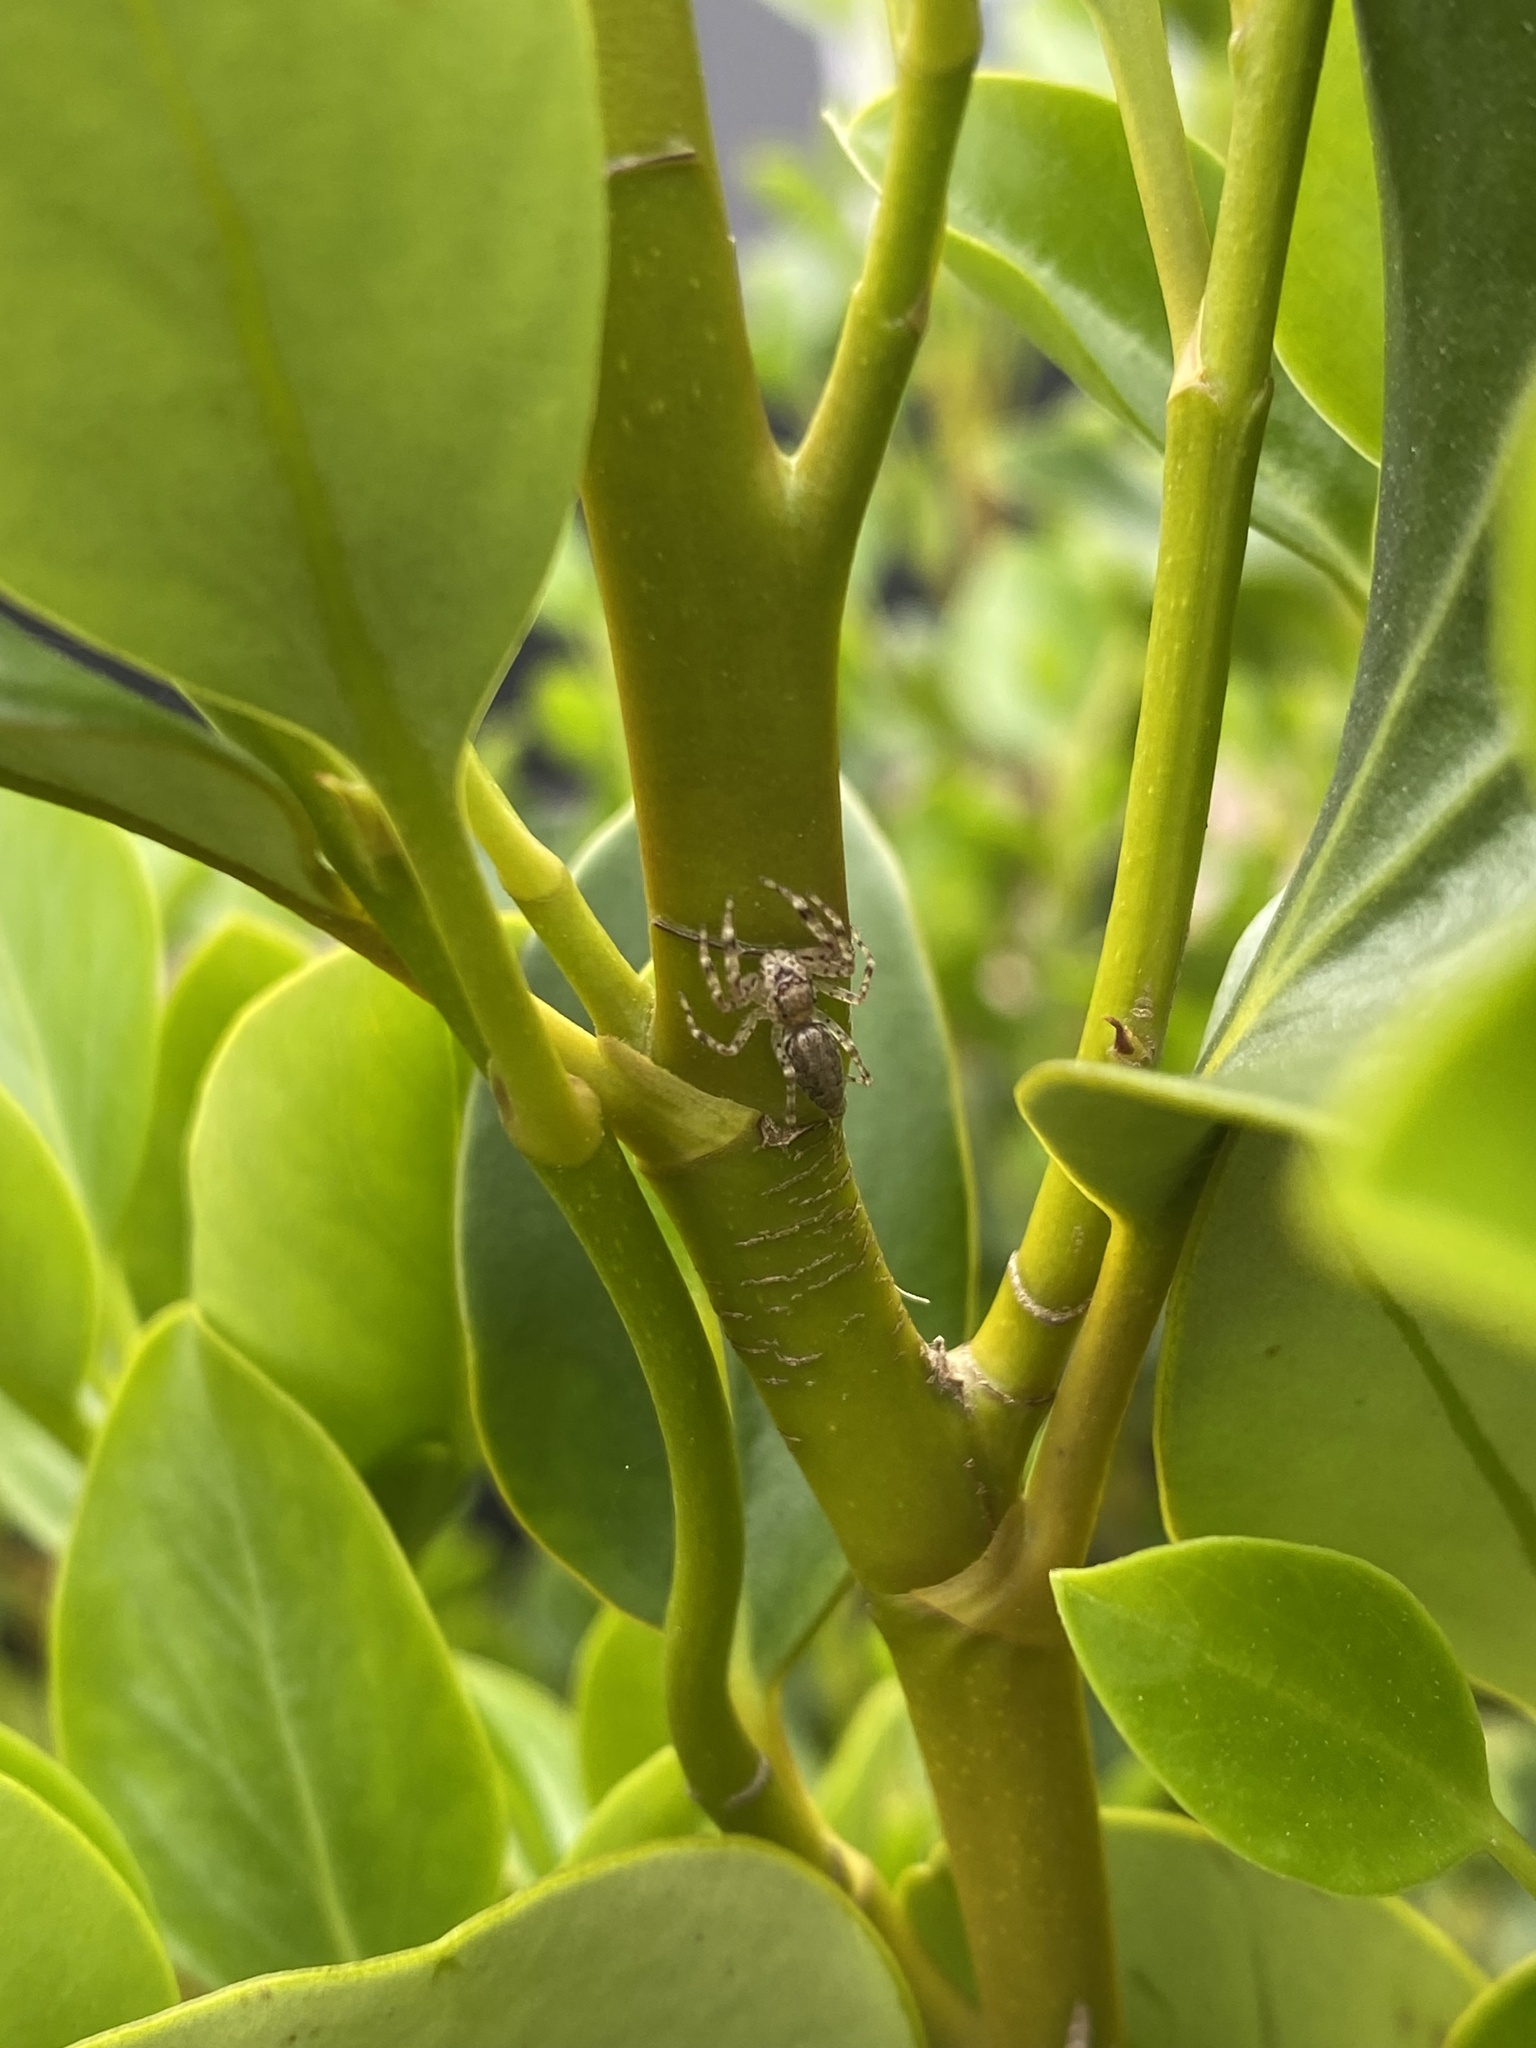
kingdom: Animalia
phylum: Arthropoda
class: Arachnida
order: Araneae
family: Salticidae
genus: Helpis
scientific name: Helpis minitabunda
